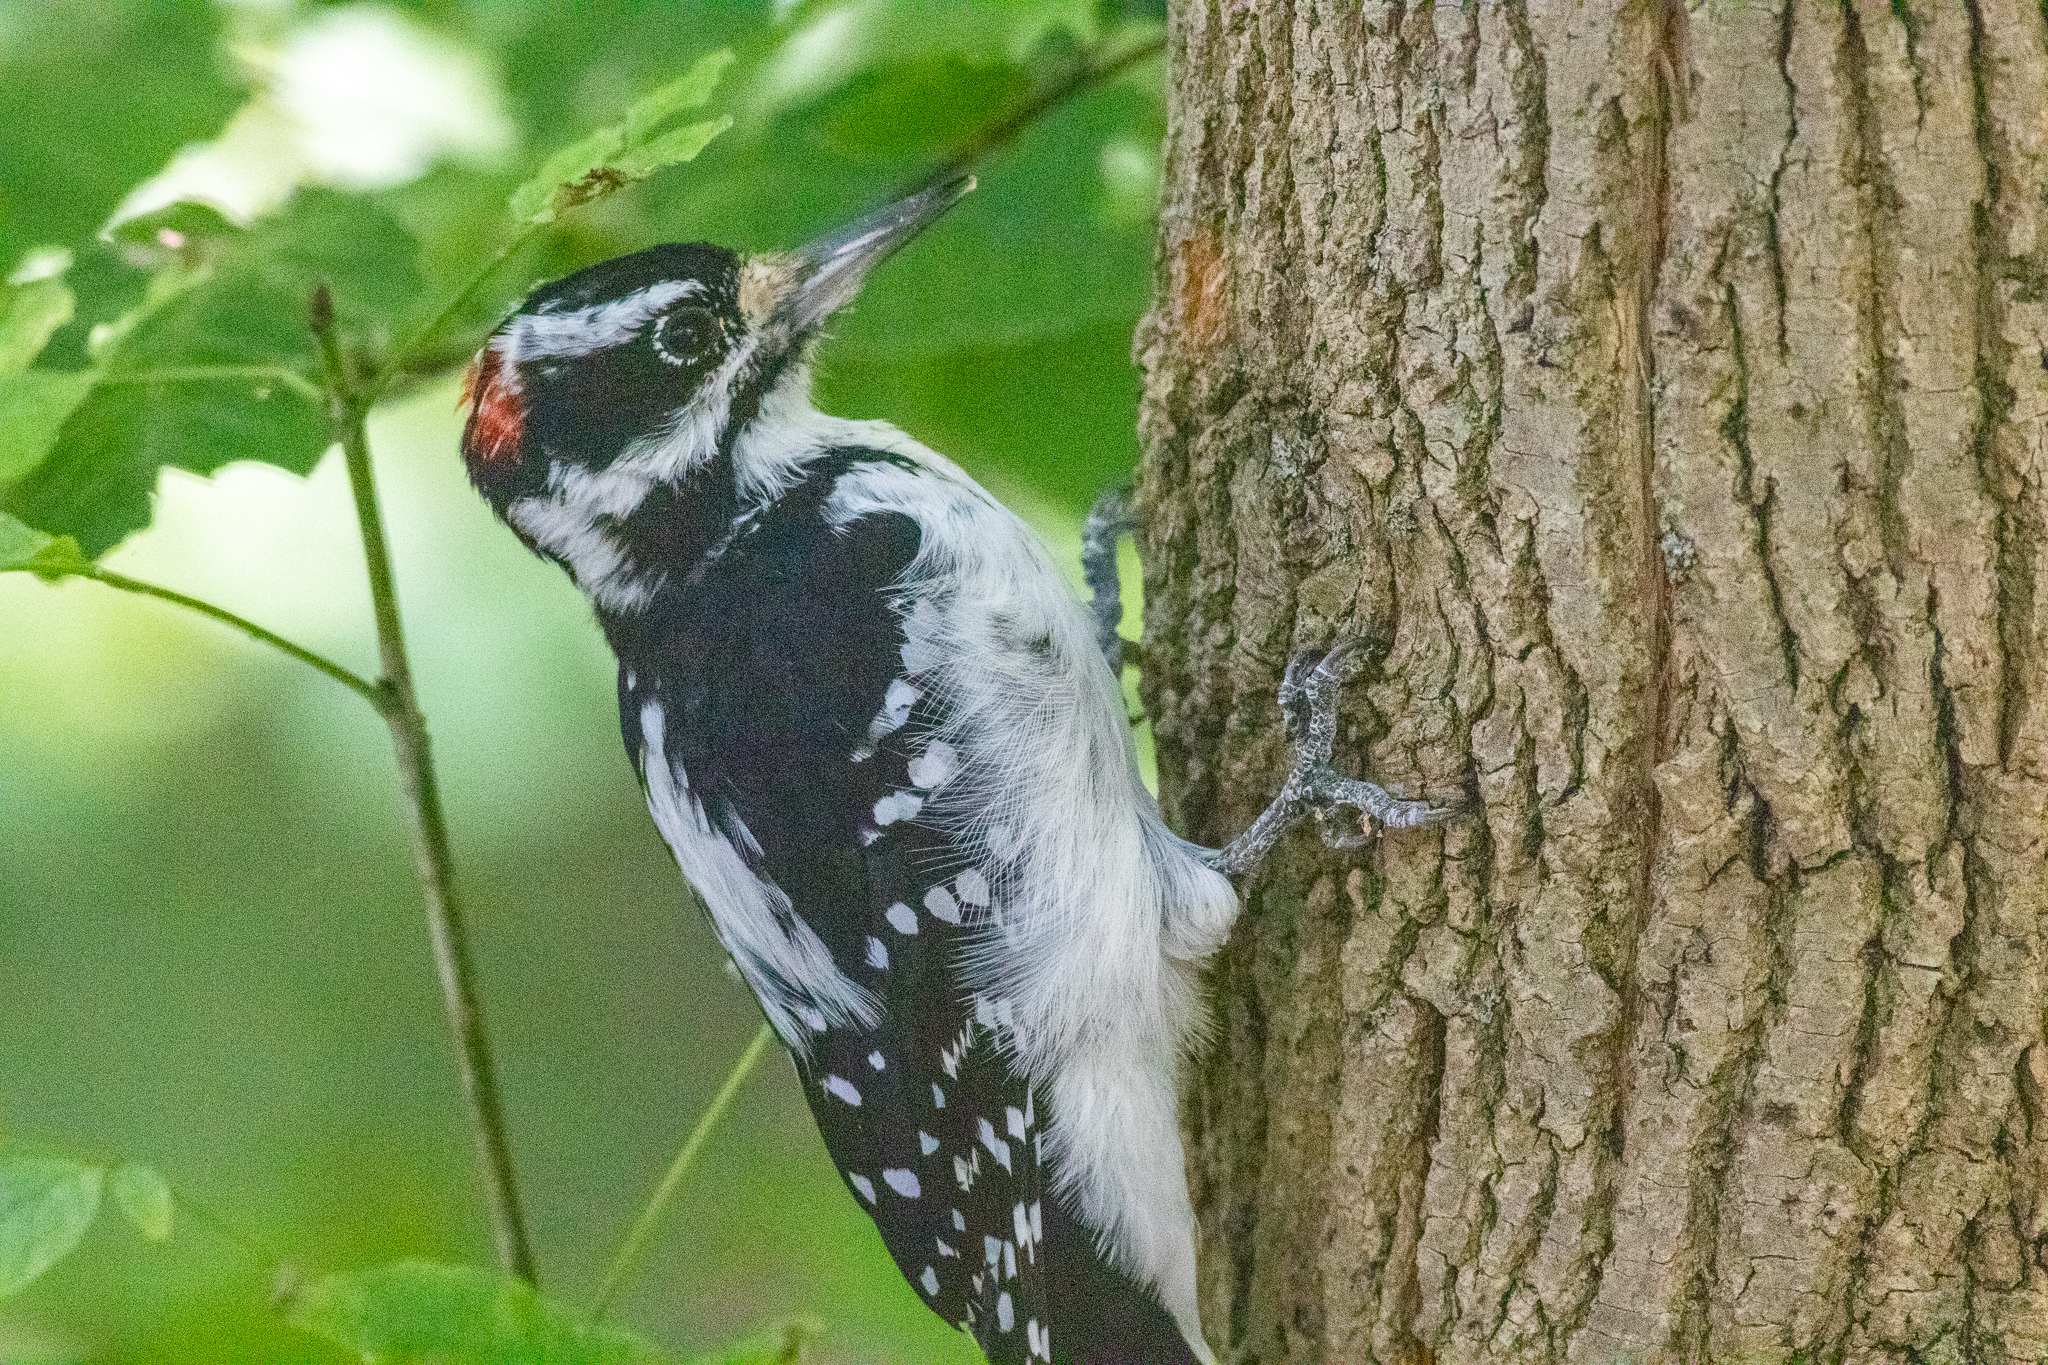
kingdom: Animalia
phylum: Chordata
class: Aves
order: Piciformes
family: Picidae
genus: Leuconotopicus
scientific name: Leuconotopicus villosus
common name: Hairy woodpecker
